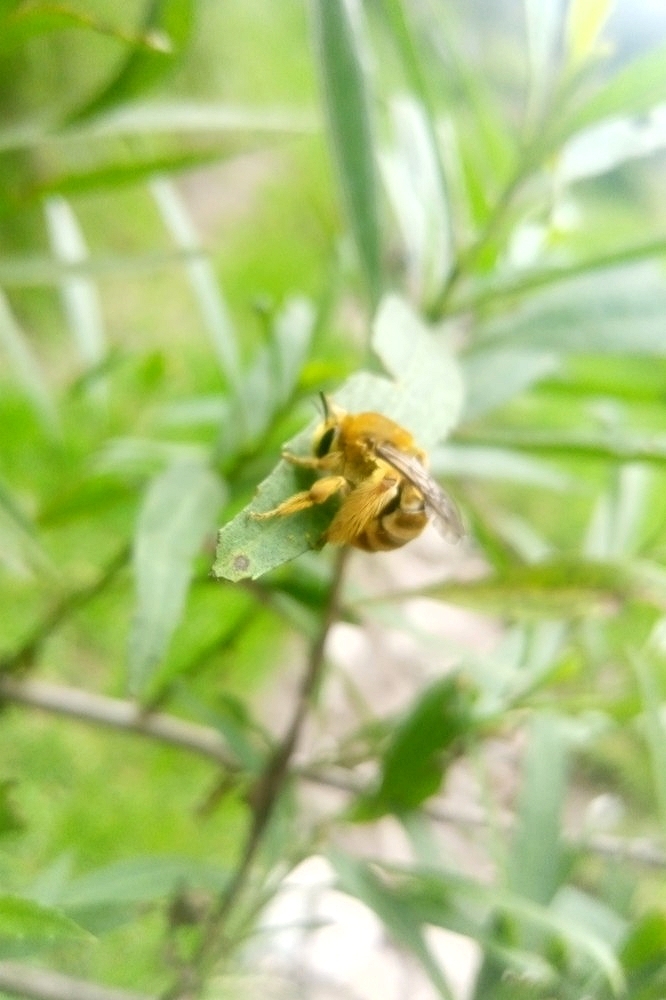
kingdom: Animalia
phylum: Arthropoda
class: Insecta
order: Hymenoptera
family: Apidae
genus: Syntrichalonia
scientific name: Syntrichalonia exquisita
